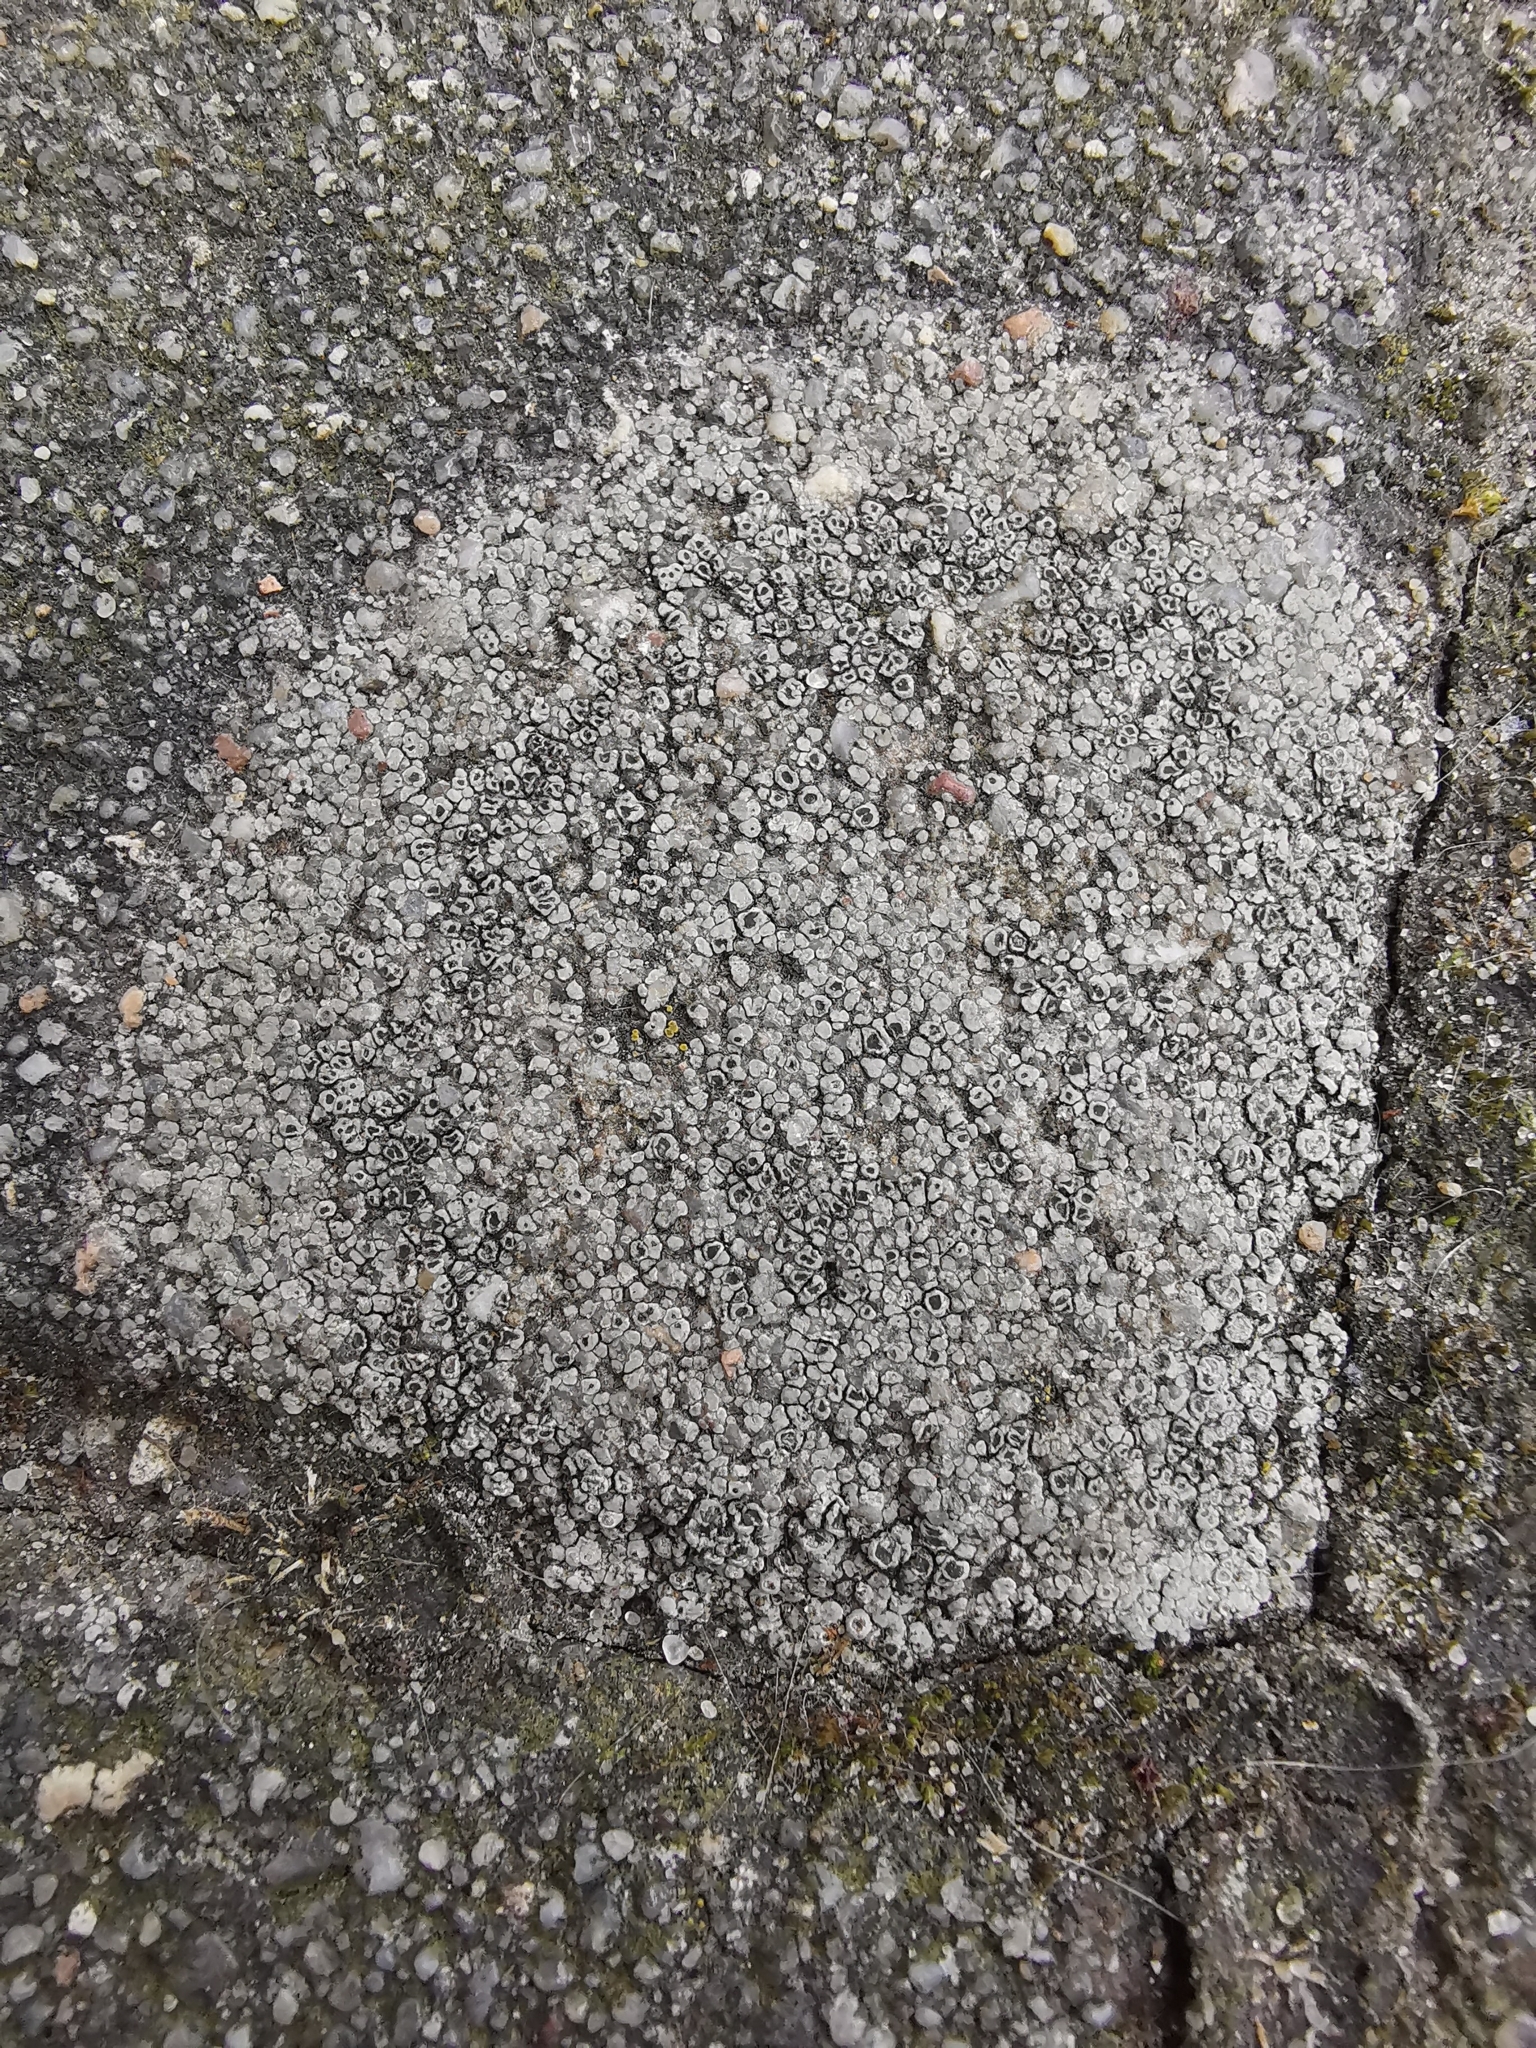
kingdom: Fungi
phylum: Ascomycota
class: Lecanoromycetes
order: Pertusariales
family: Megasporaceae
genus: Circinaria
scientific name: Circinaria contorta
